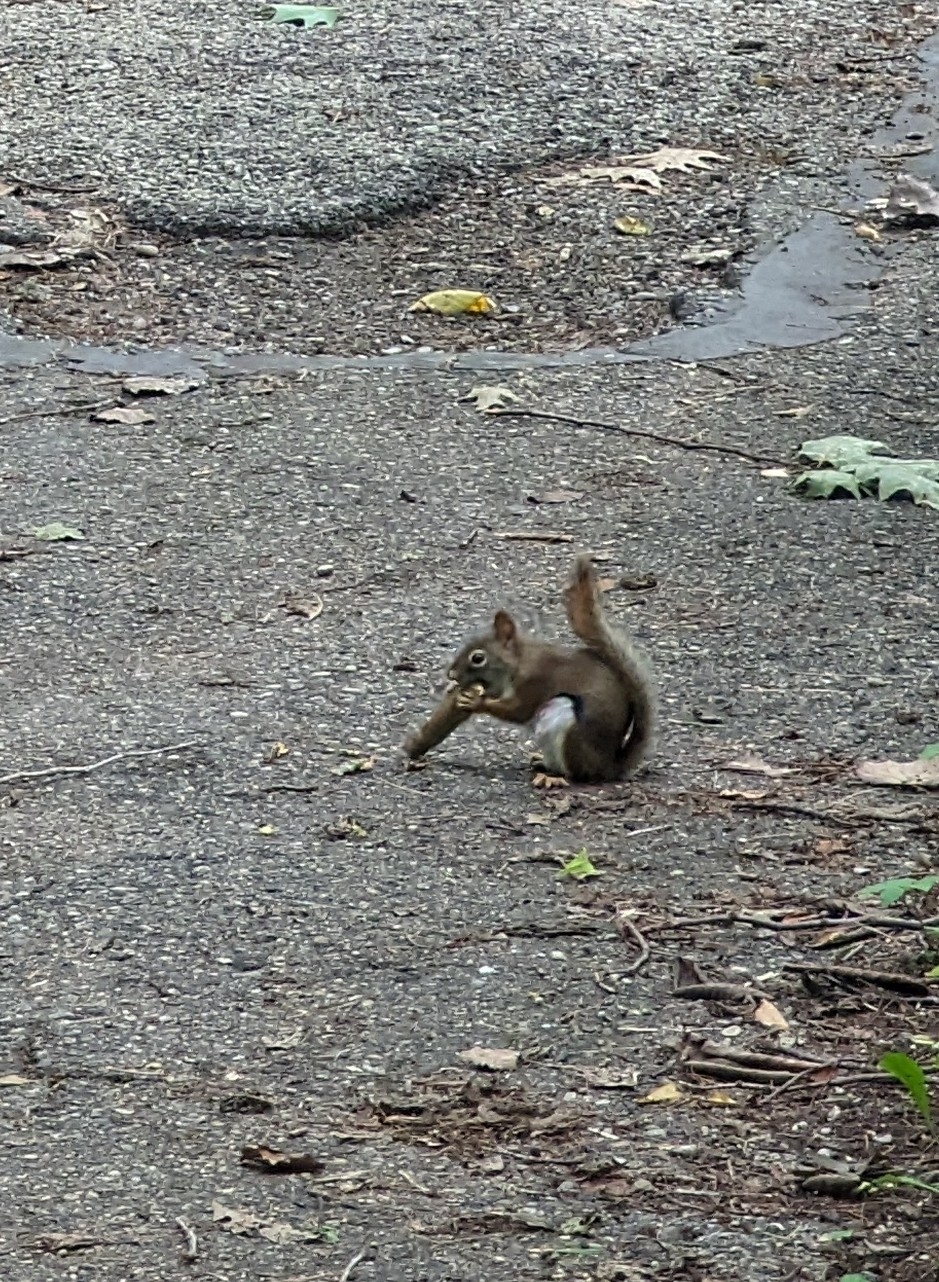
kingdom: Animalia
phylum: Chordata
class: Mammalia
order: Rodentia
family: Sciuridae
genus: Tamiasciurus
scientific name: Tamiasciurus hudsonicus
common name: Red squirrel
